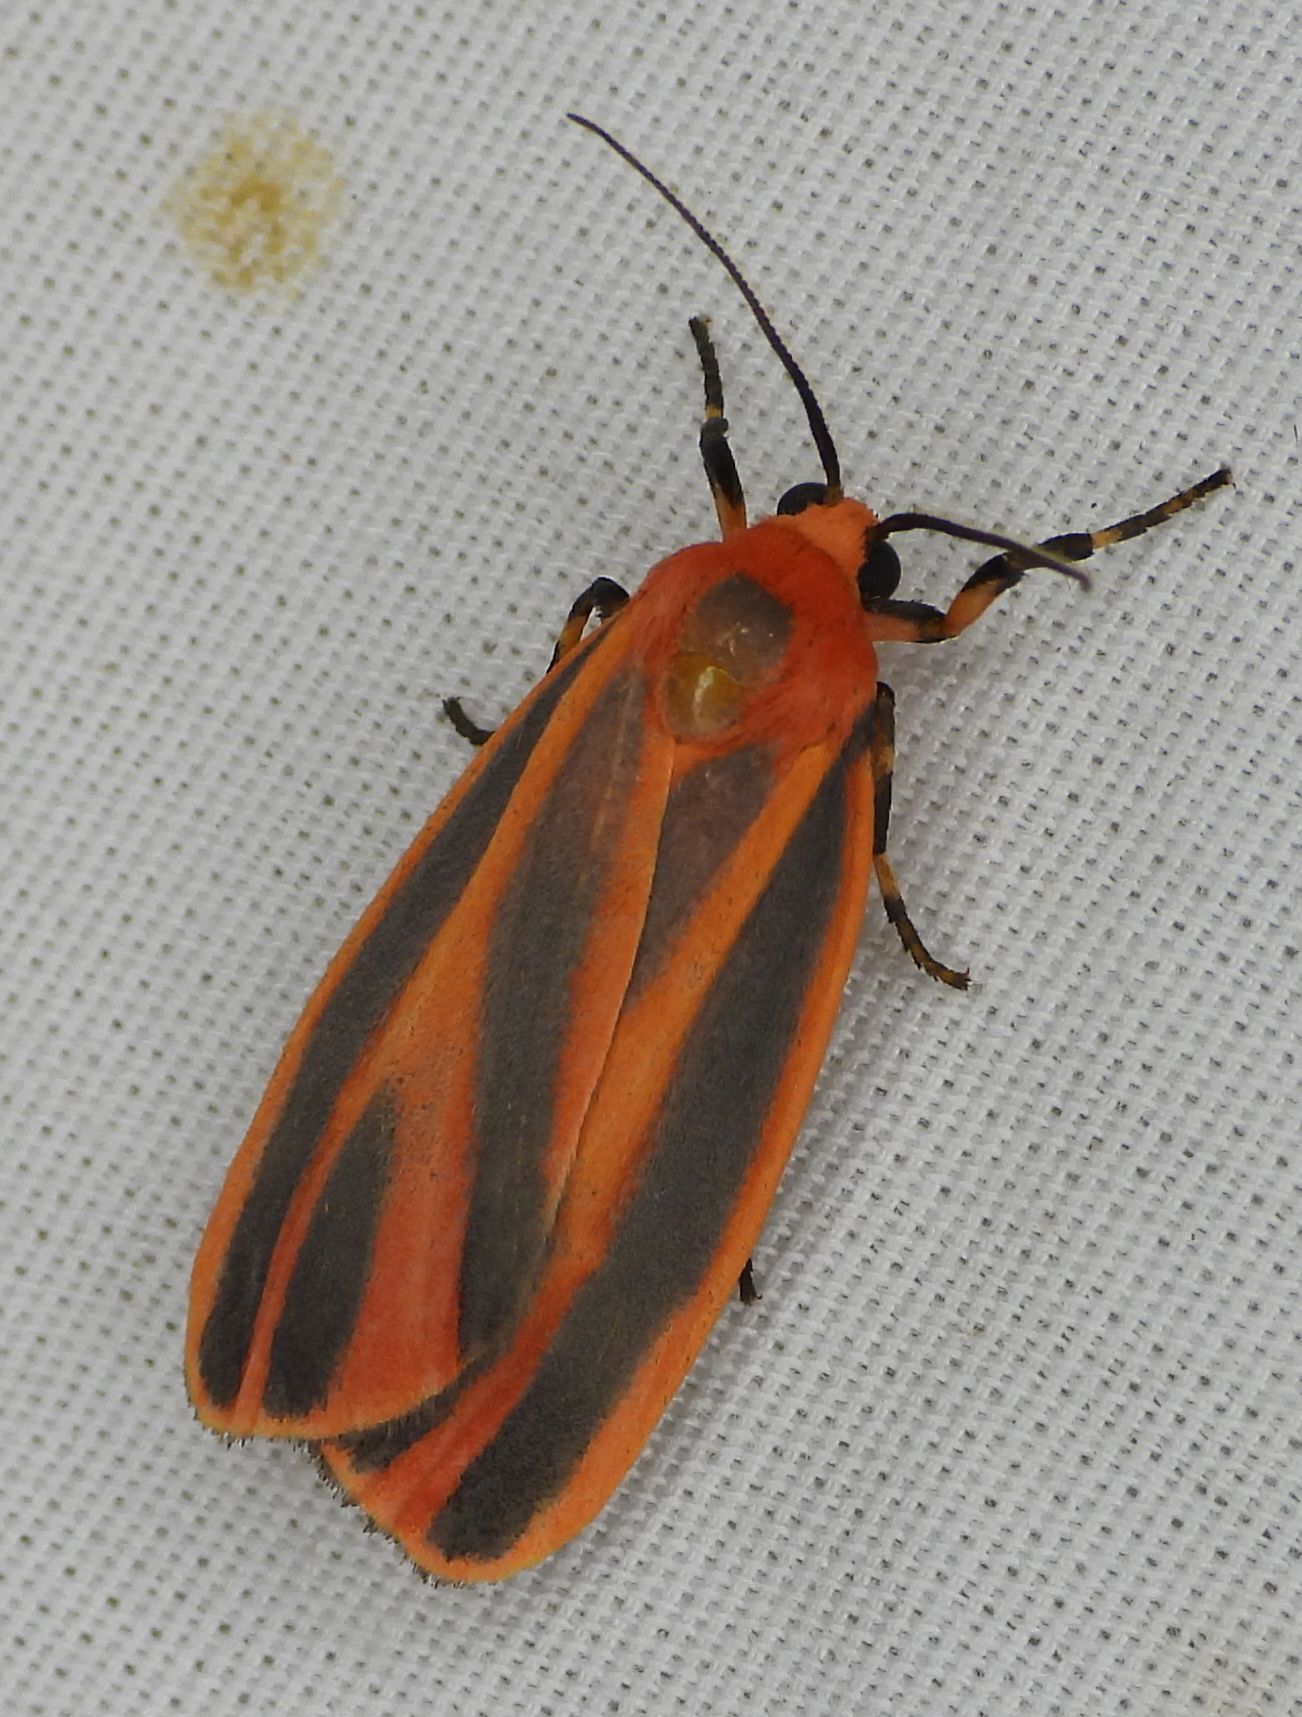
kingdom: Animalia
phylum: Arthropoda
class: Insecta
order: Lepidoptera
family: Erebidae
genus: Hypoprepia
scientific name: Hypoprepia miniata
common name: Scarlet-winged lichen moth
